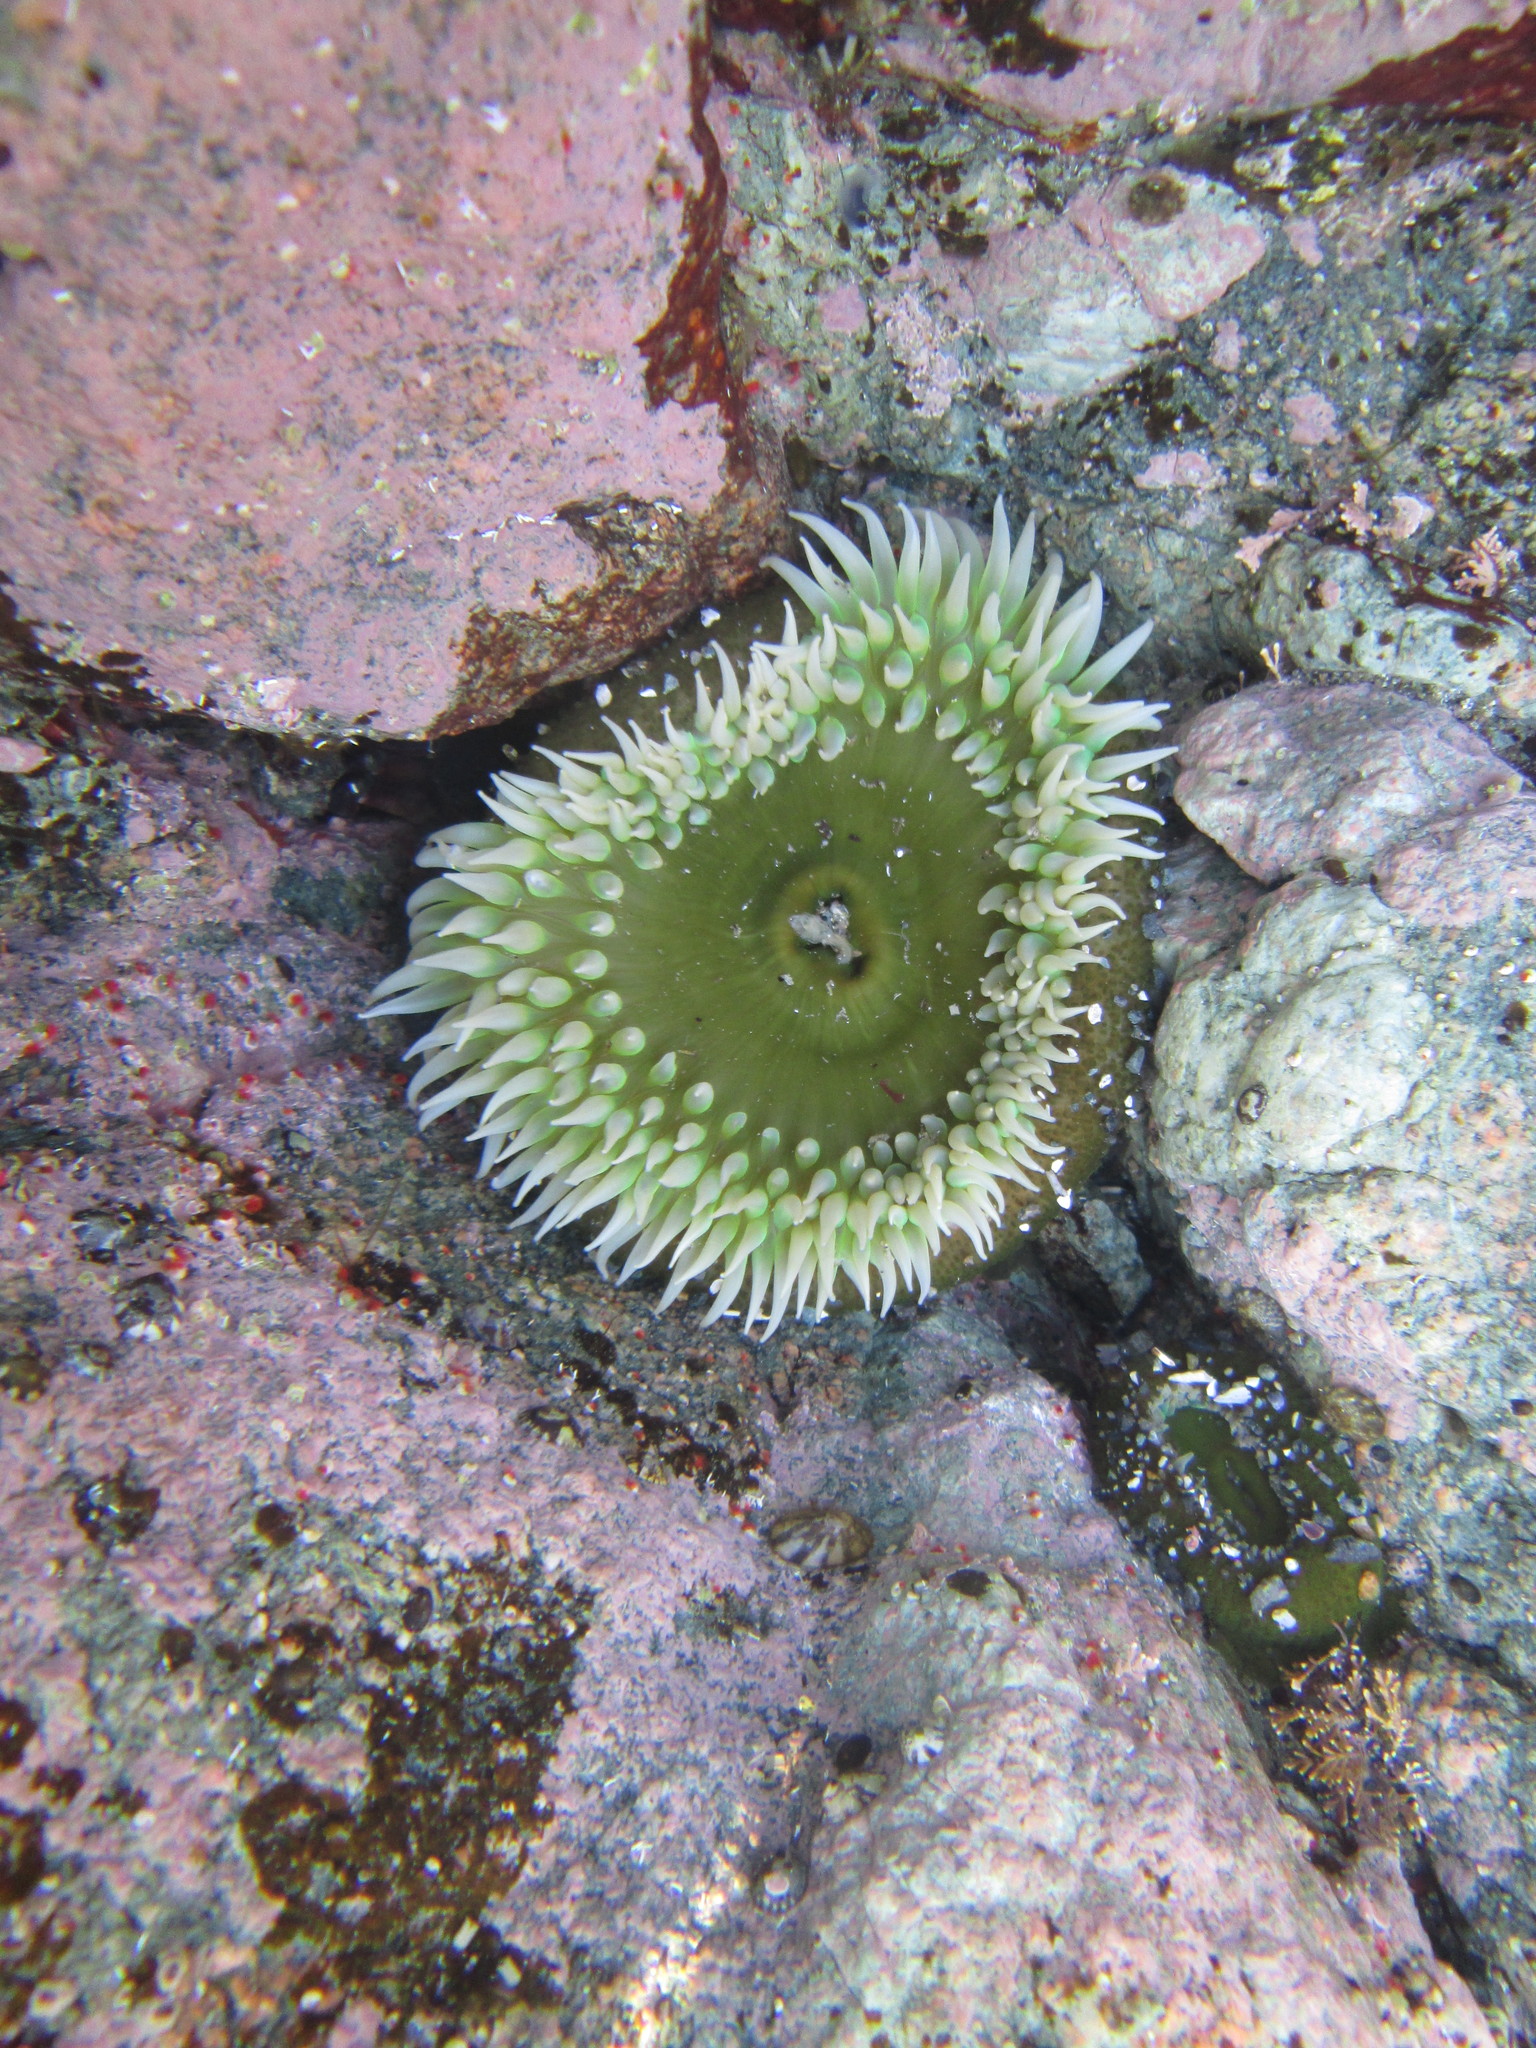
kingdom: Animalia
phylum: Cnidaria
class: Anthozoa
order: Actiniaria
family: Actiniidae
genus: Anthopleura
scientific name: Anthopleura xanthogrammica
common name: Giant green anemone
